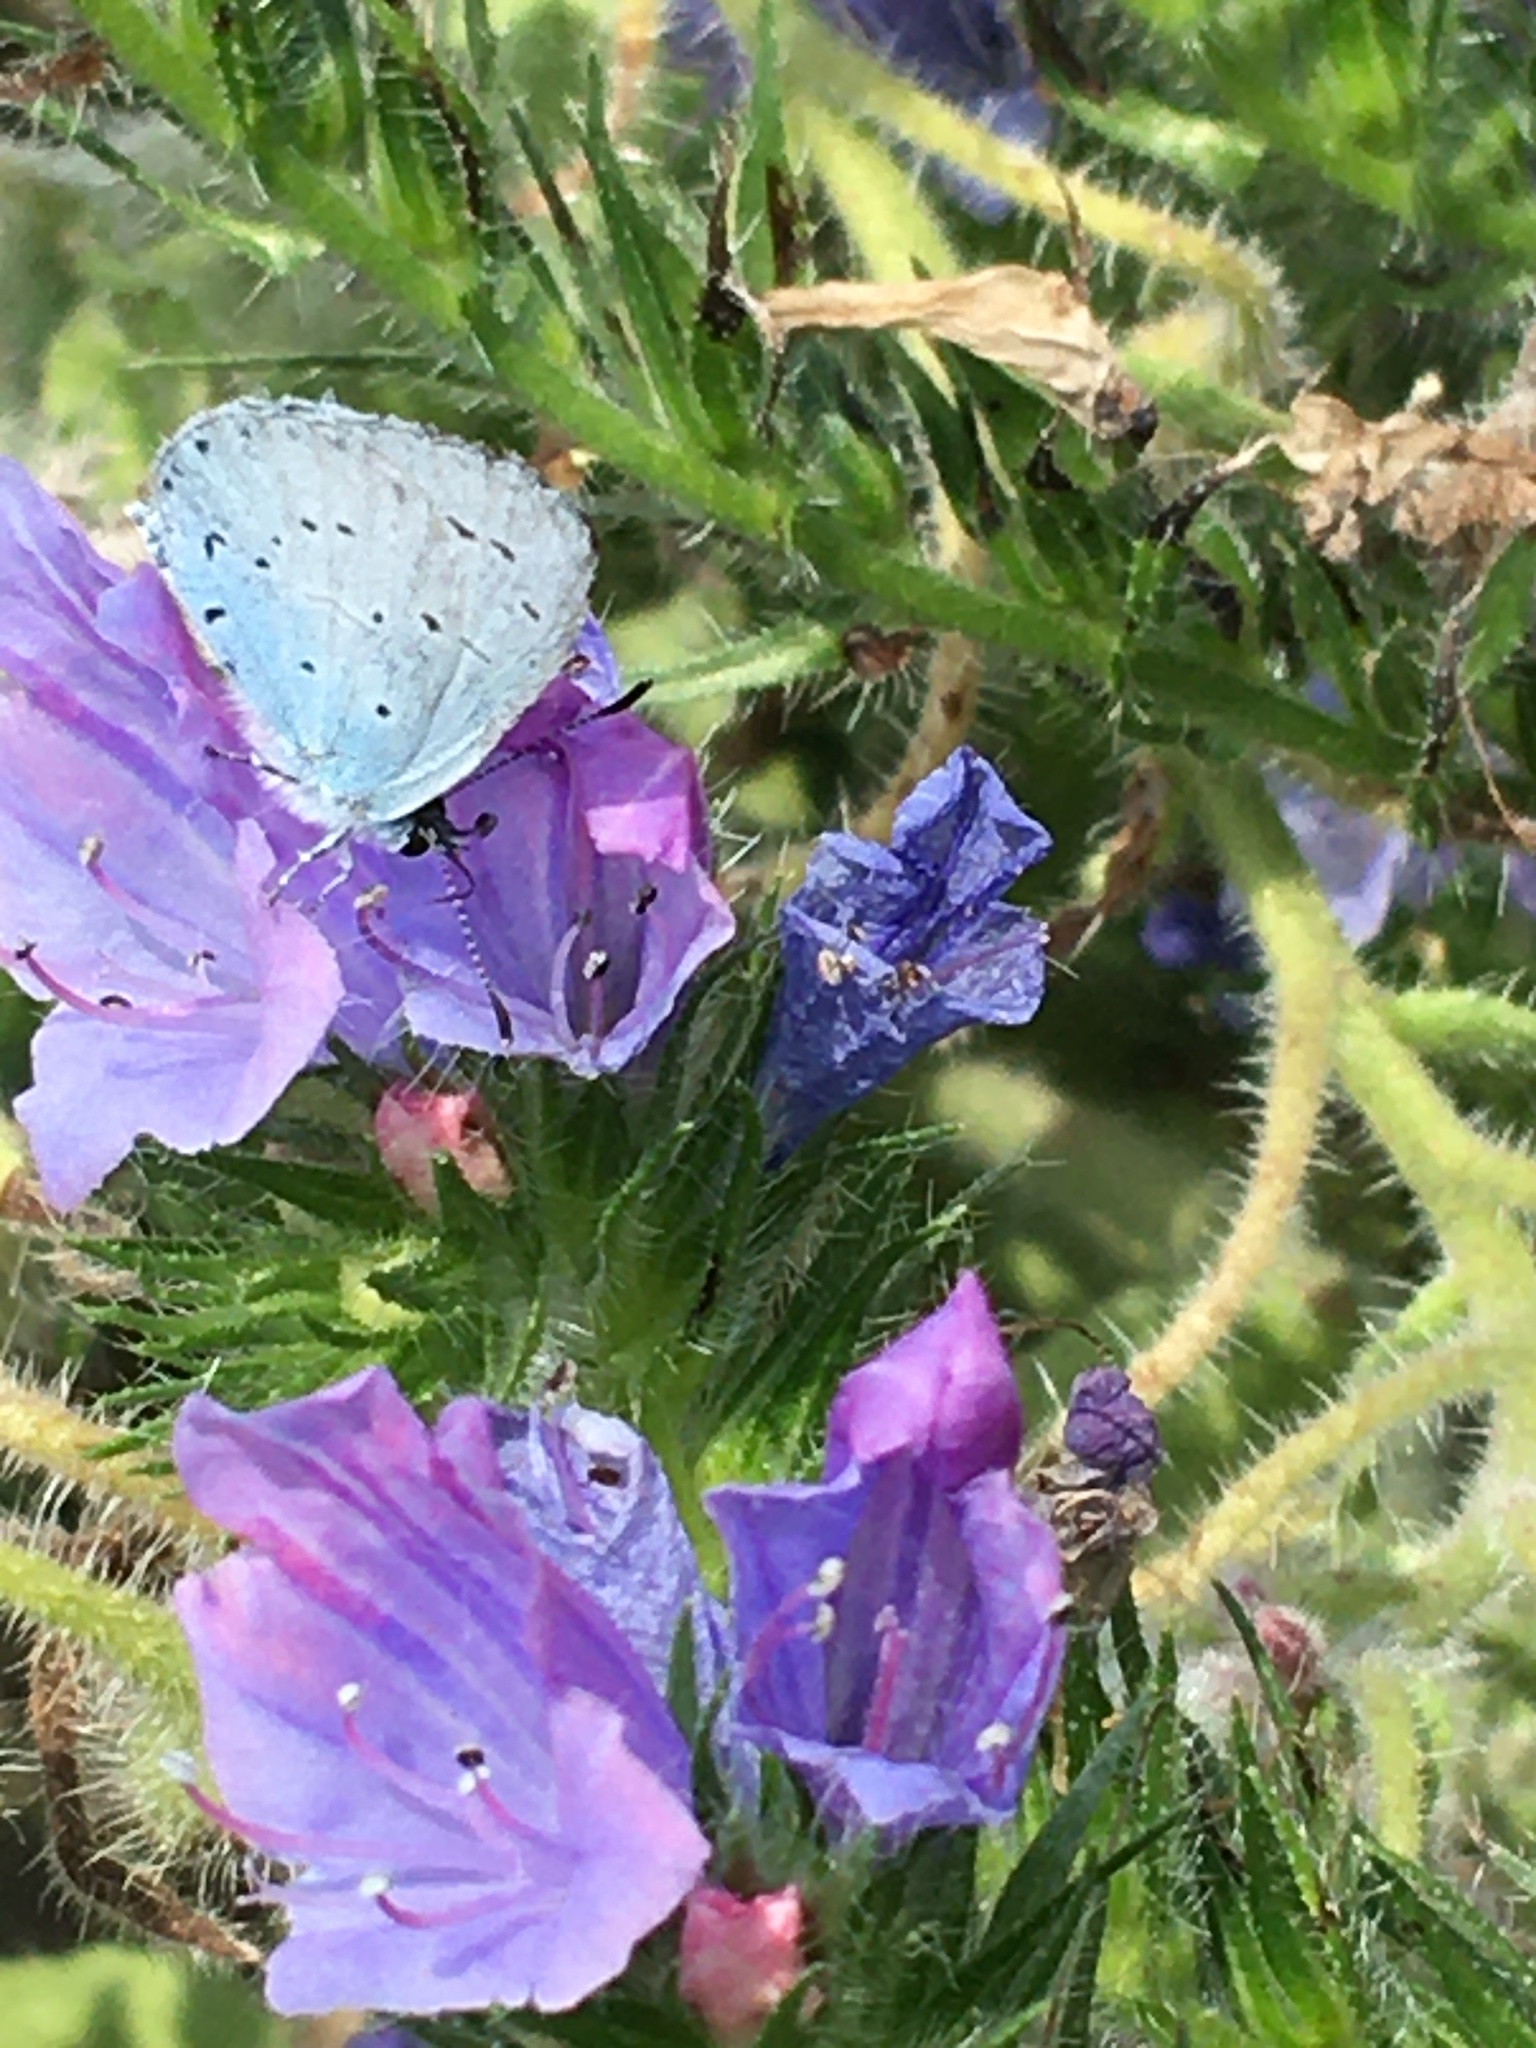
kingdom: Animalia
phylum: Arthropoda
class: Insecta
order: Lepidoptera
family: Lycaenidae
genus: Celastrina
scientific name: Celastrina argiolus
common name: Holly blue
